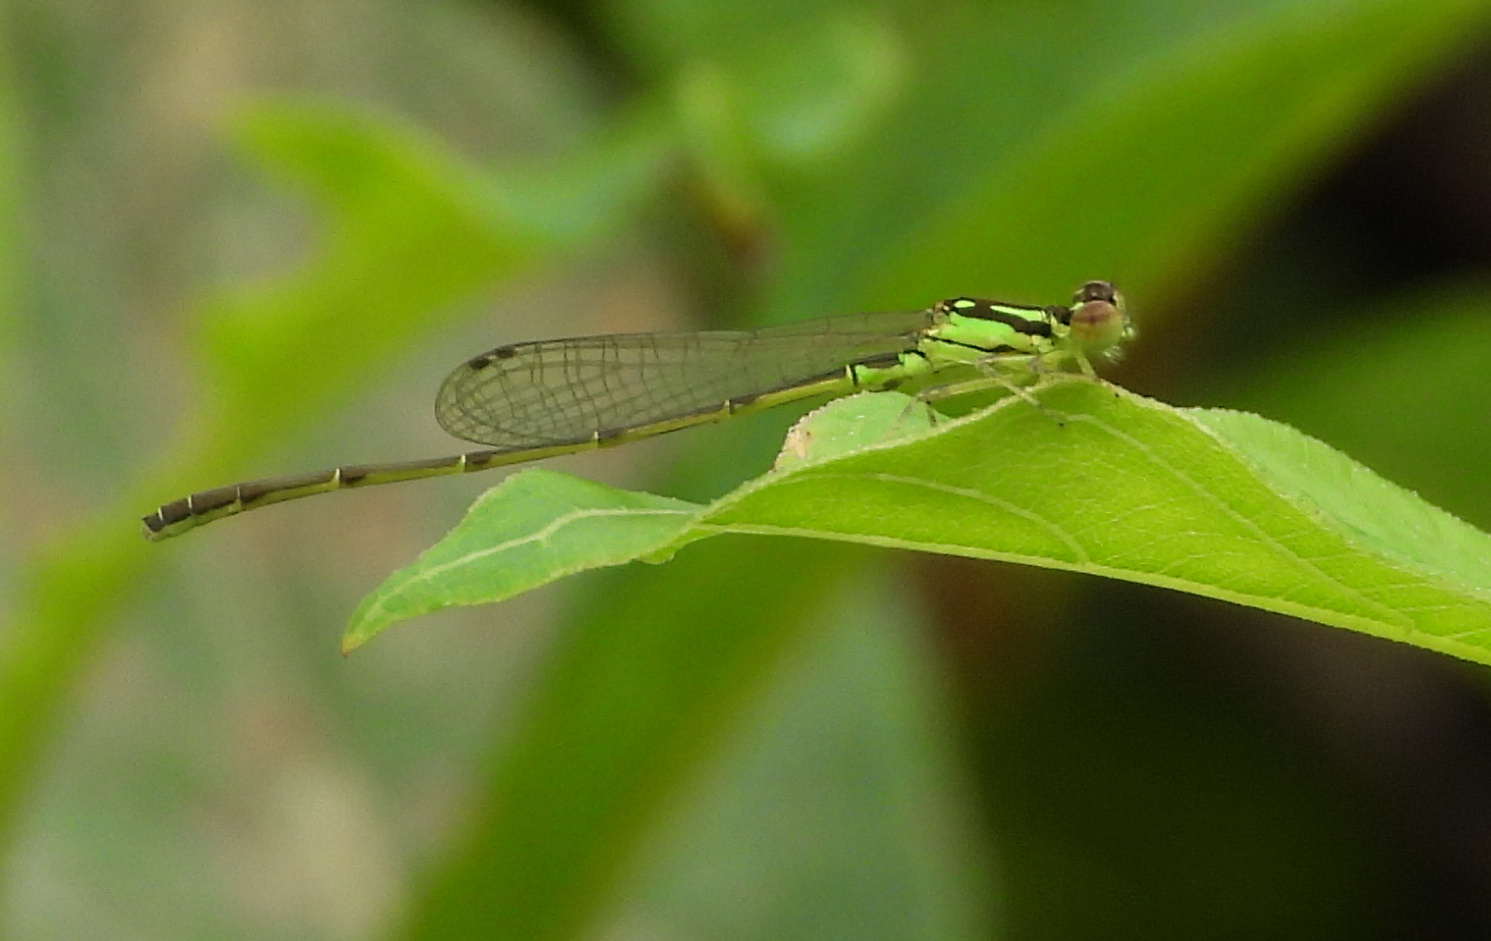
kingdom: Animalia
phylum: Arthropoda
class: Insecta
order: Odonata
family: Coenagrionidae
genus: Ischnura
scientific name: Ischnura posita
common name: Fragile forktail
